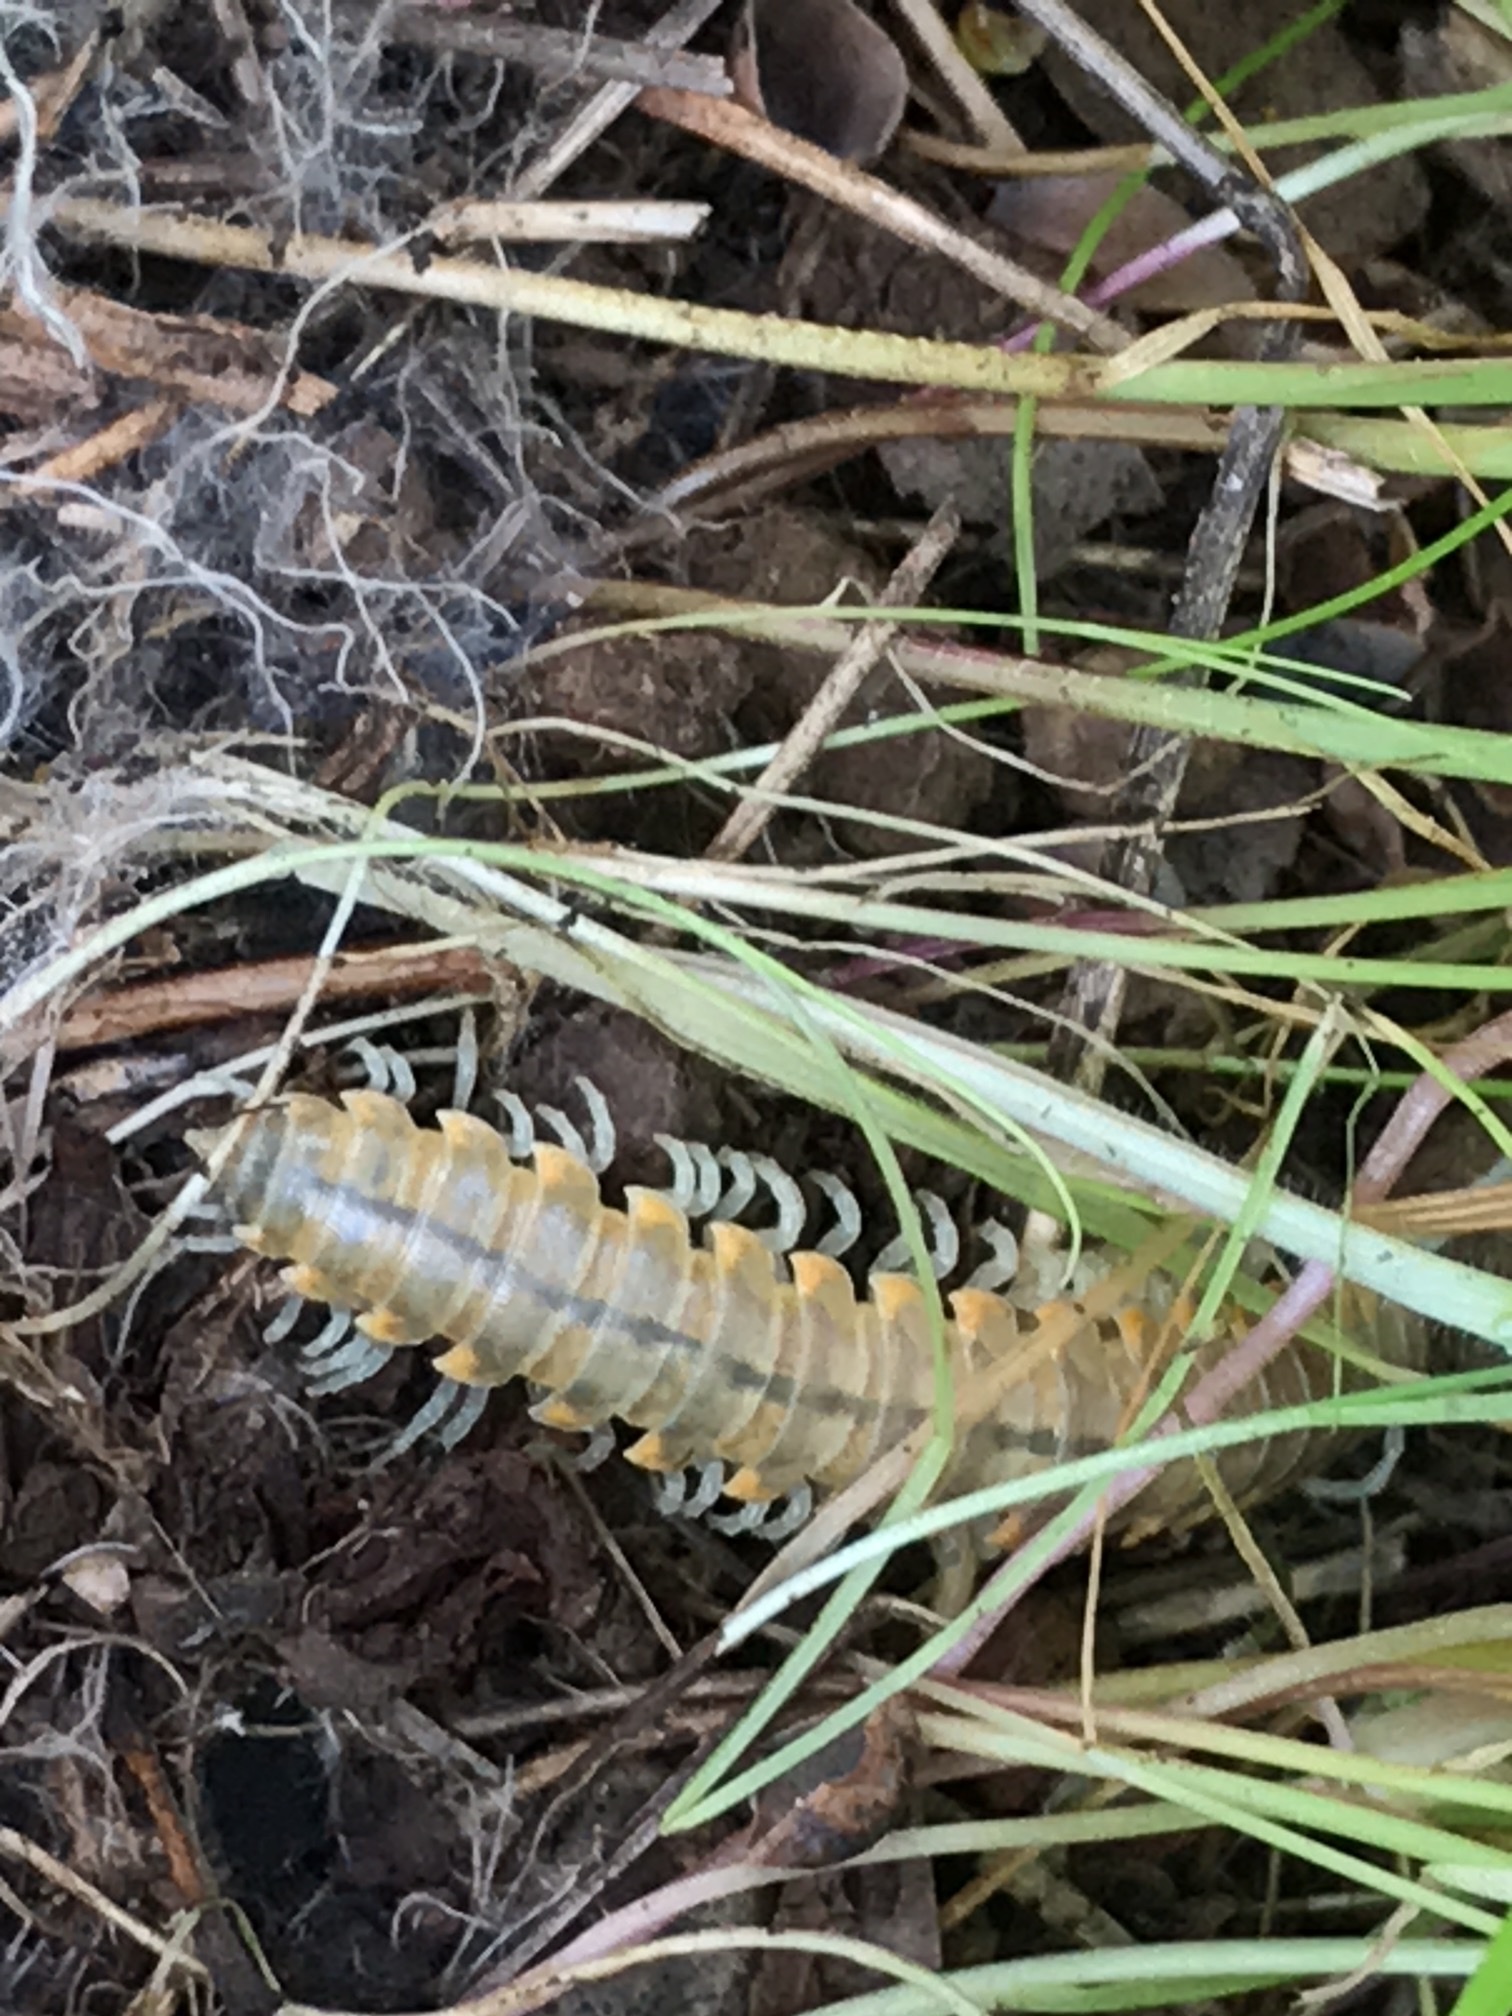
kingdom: Animalia
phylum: Arthropoda
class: Diplopoda
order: Polydesmida
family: Xystodesmidae
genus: Xystocheir
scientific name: Xystocheir dissecta
